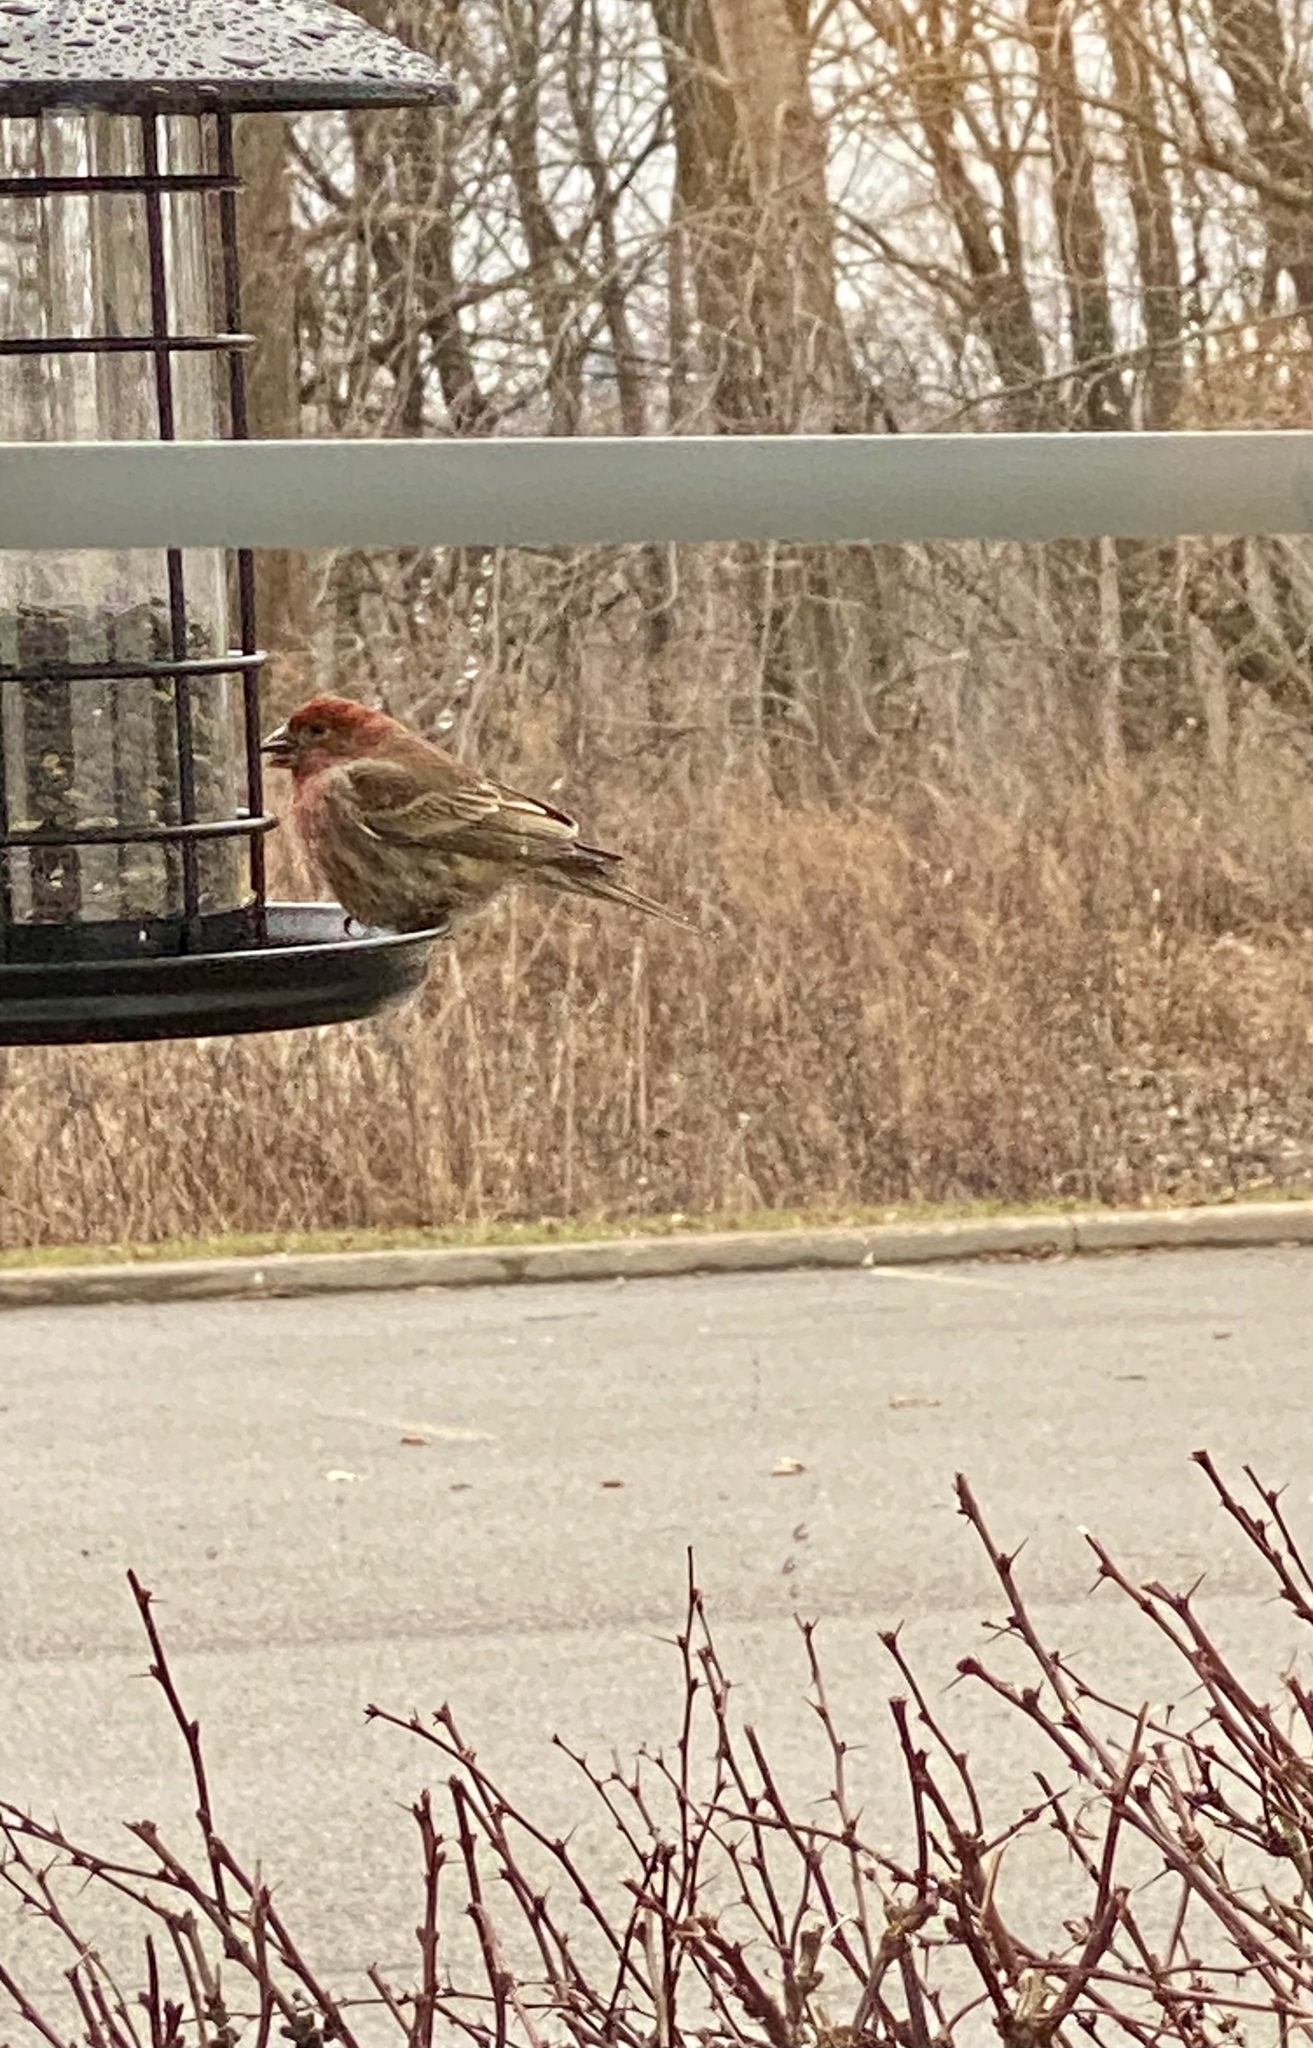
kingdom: Animalia
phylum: Chordata
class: Aves
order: Passeriformes
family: Fringillidae
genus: Haemorhous
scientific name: Haemorhous mexicanus
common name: House finch
